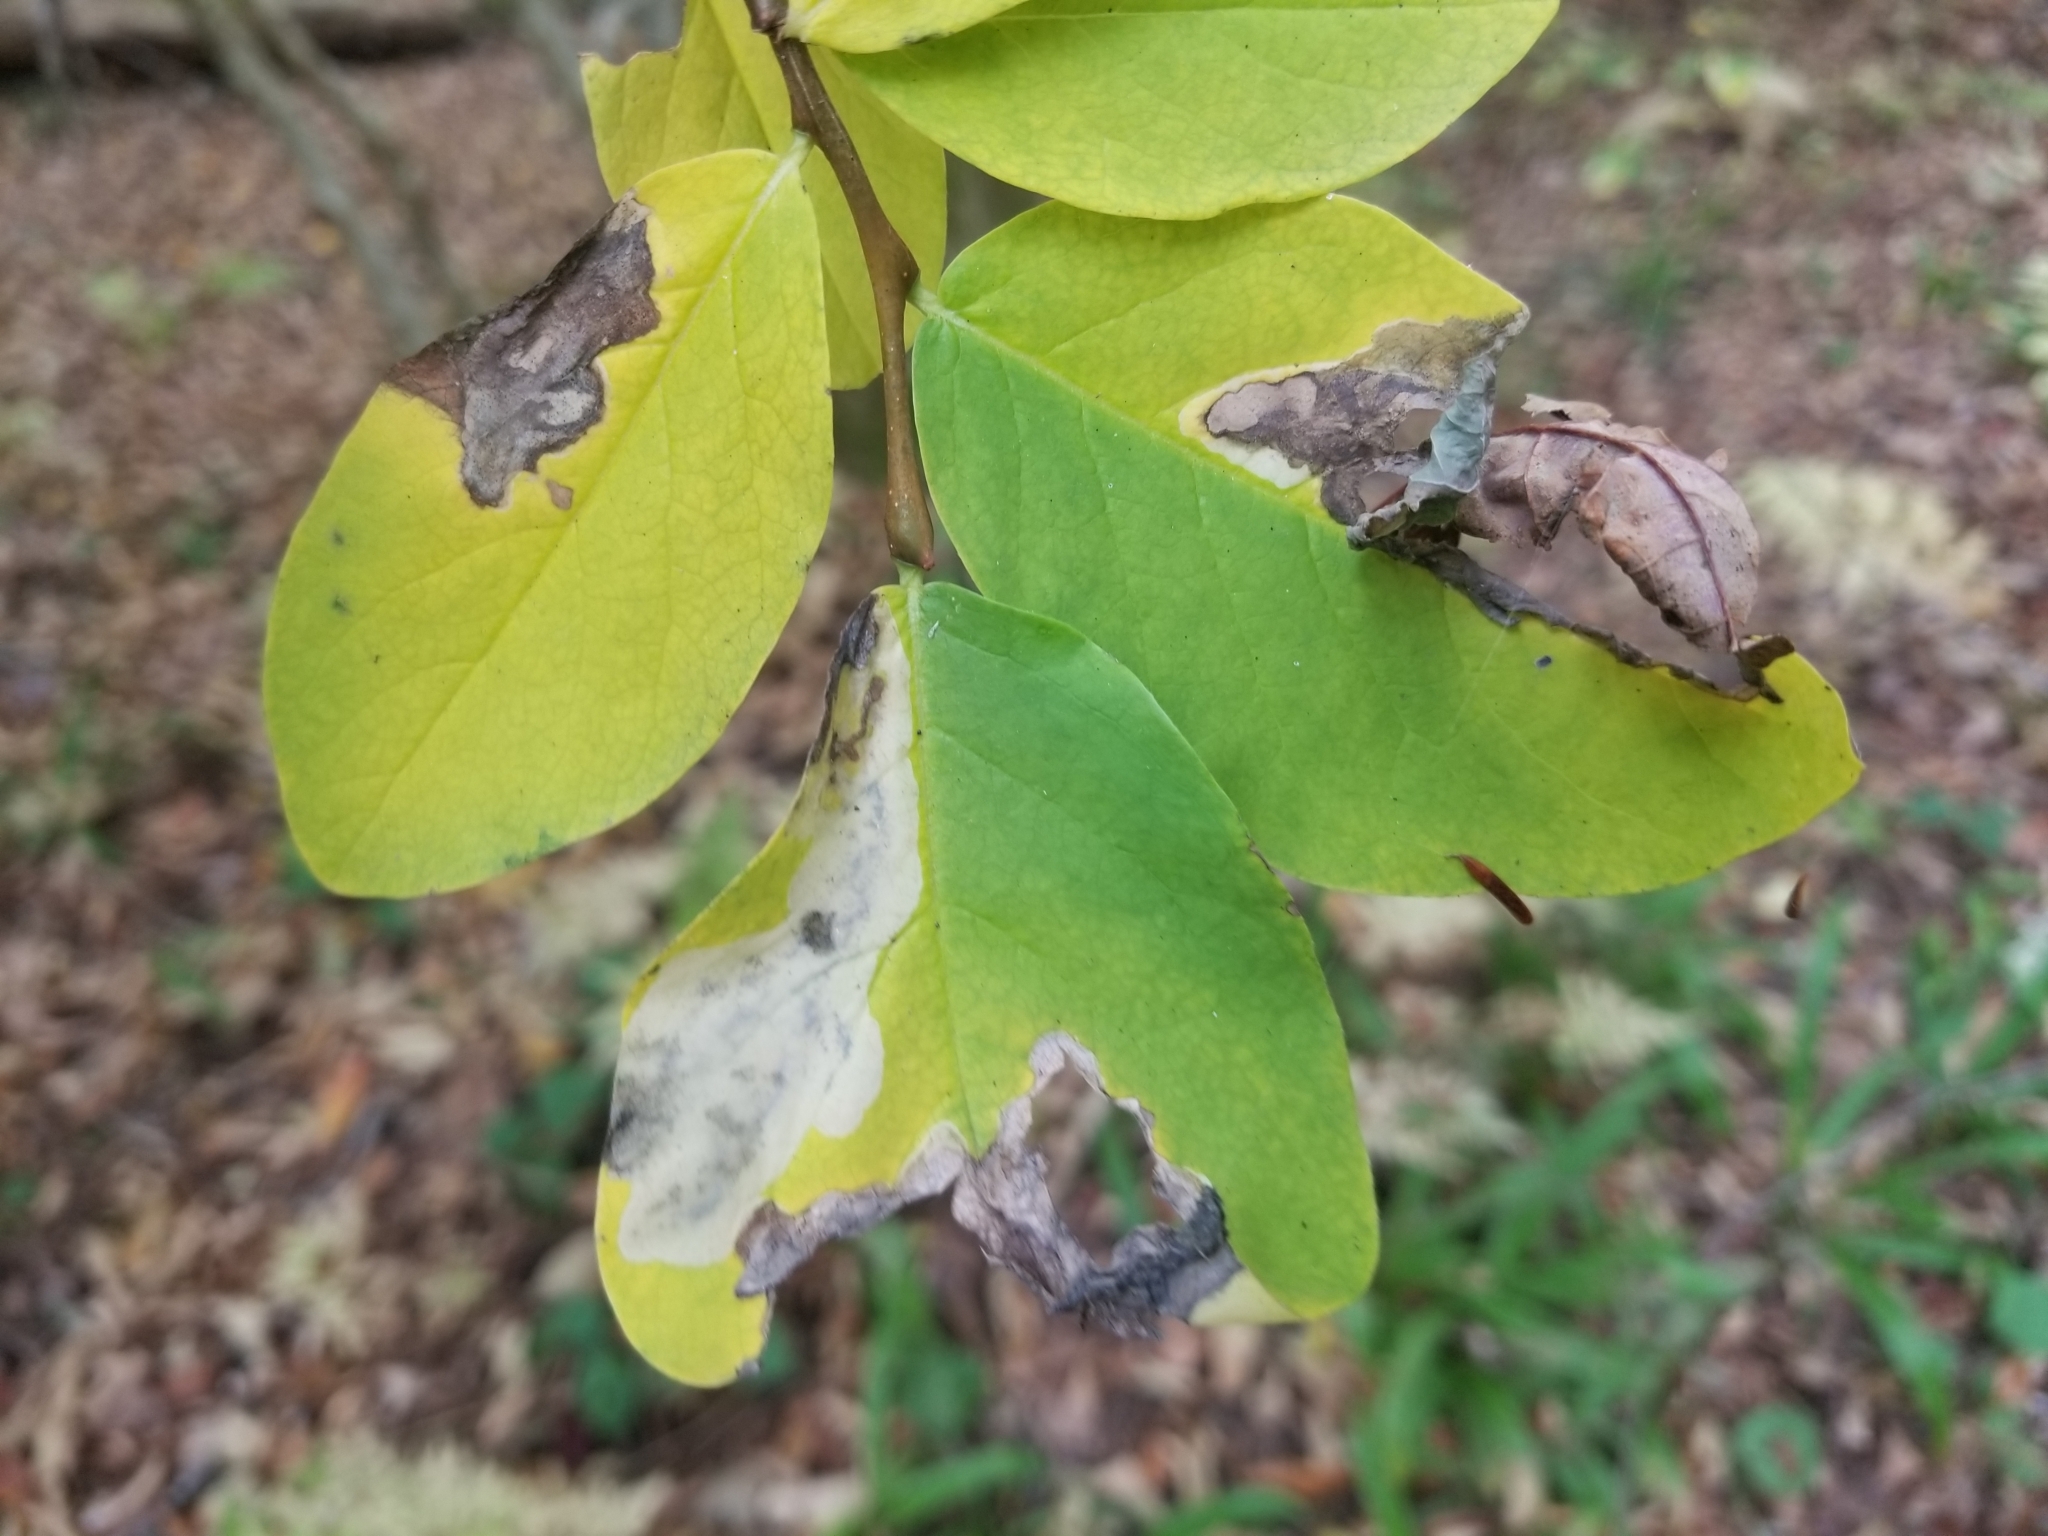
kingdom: Plantae
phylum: Tracheophyta
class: Magnoliopsida
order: Malvales
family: Thymelaeaceae
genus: Dirca
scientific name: Dirca palustris
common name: Leatherwood
